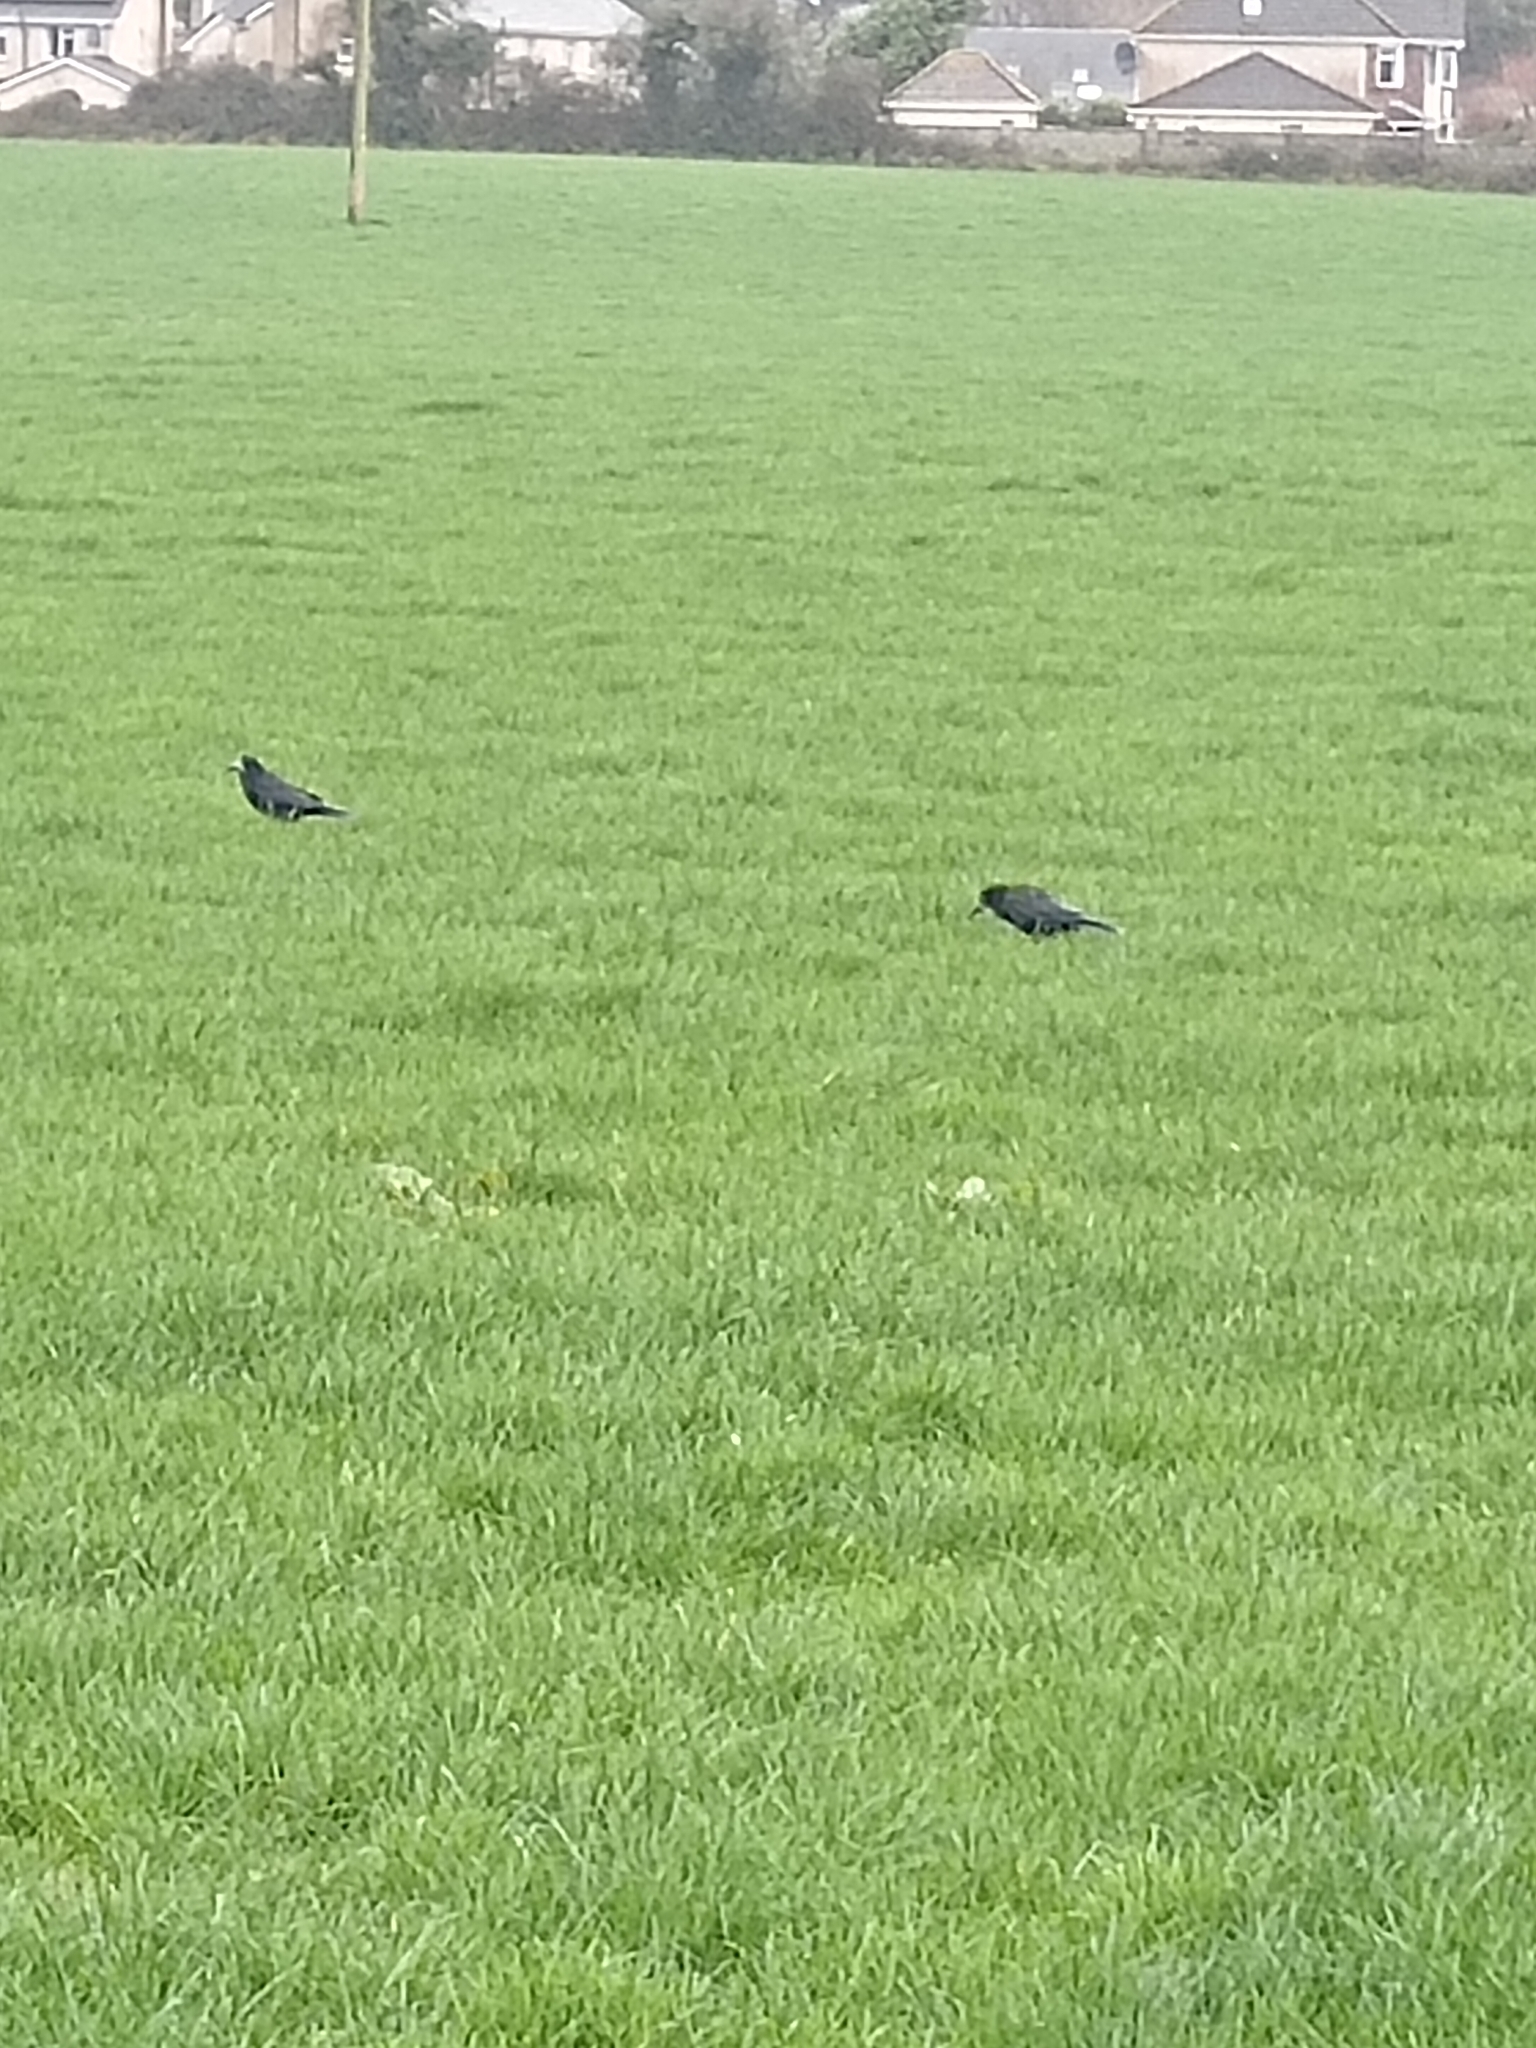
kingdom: Animalia
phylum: Chordata
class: Aves
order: Passeriformes
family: Corvidae
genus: Corvus
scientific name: Corvus frugilegus
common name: Rook
